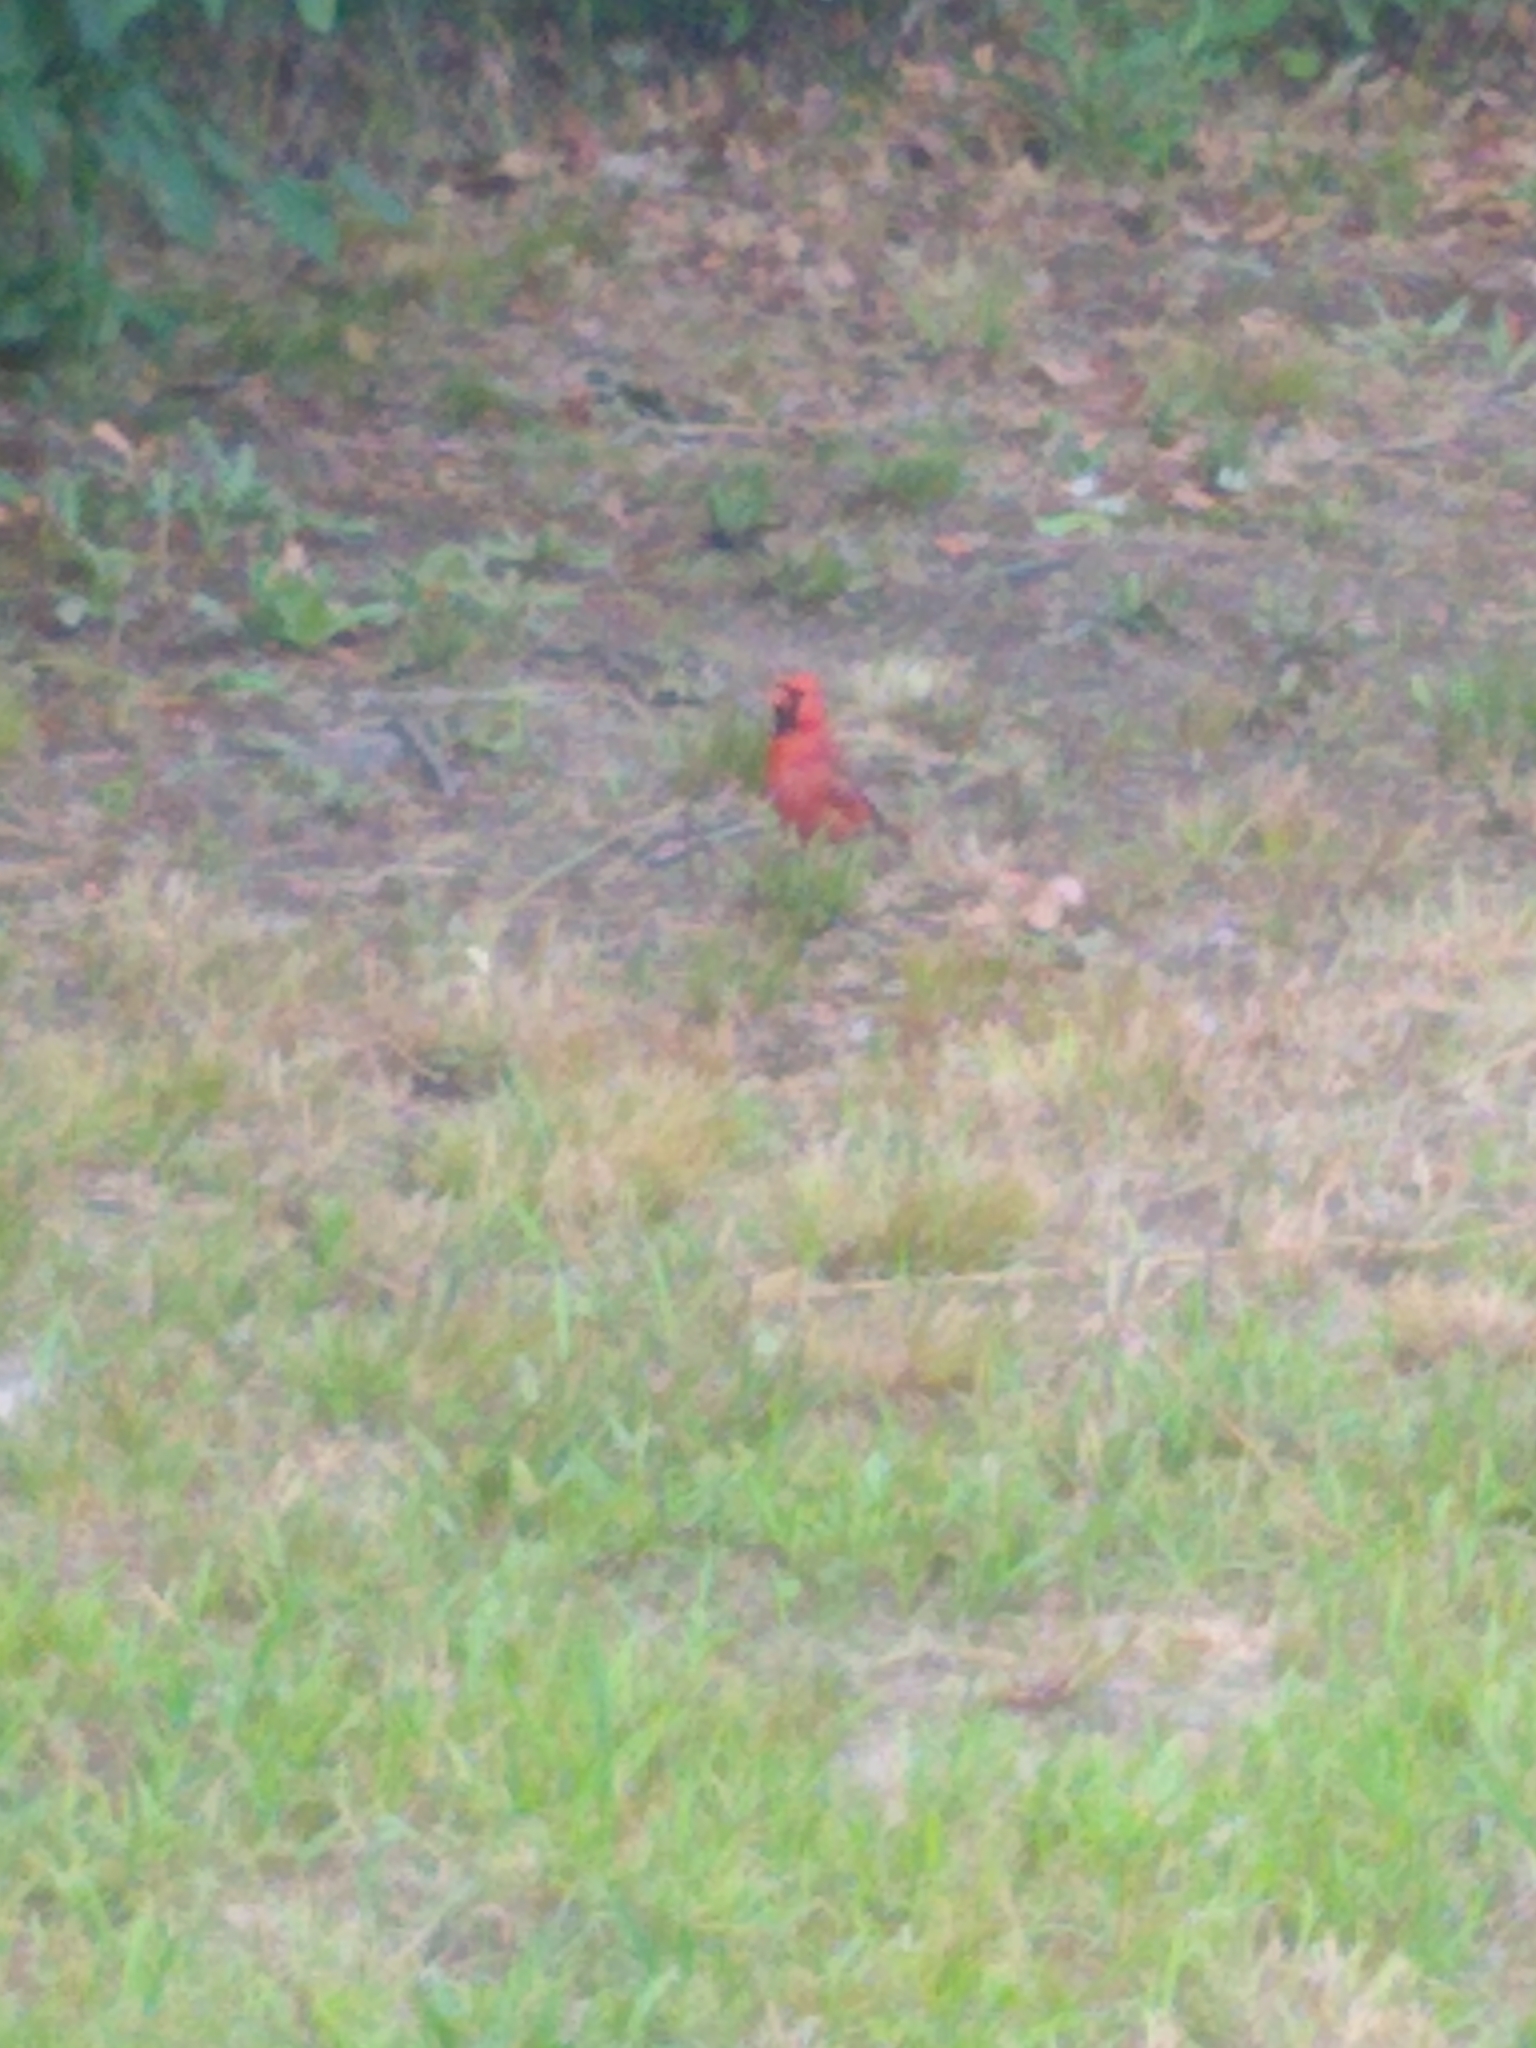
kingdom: Animalia
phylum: Chordata
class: Aves
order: Passeriformes
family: Cardinalidae
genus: Cardinalis
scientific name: Cardinalis cardinalis
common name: Northern cardinal
